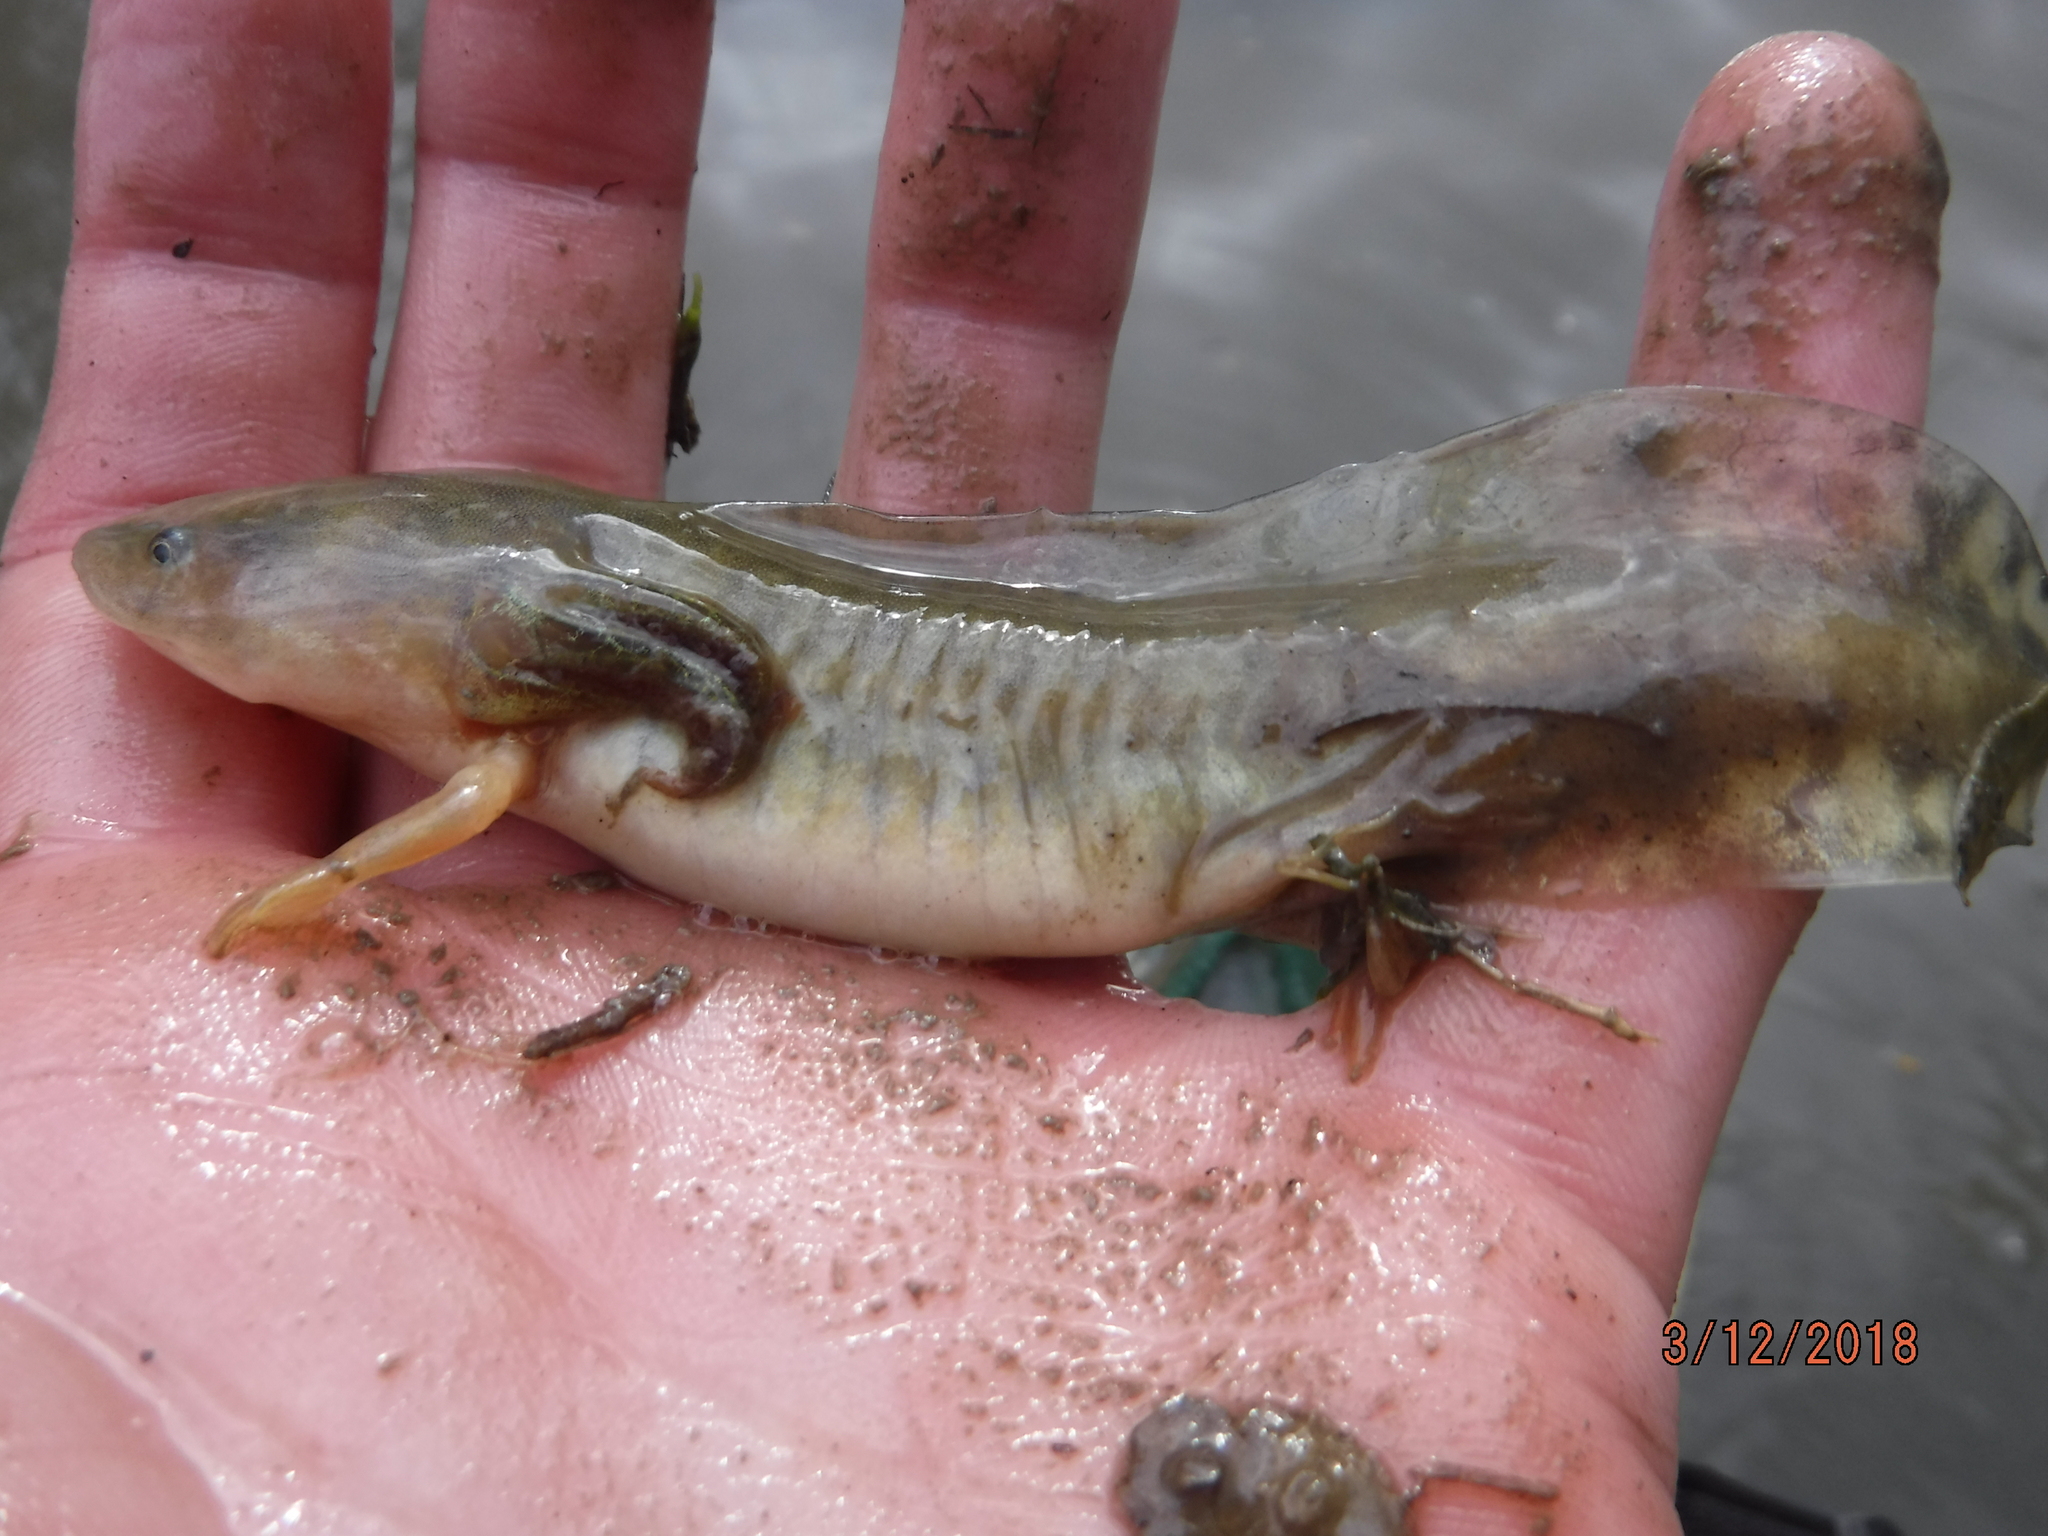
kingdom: Animalia
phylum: Chordata
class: Amphibia
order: Caudata
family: Ambystomatidae
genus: Ambystoma
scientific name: Ambystoma mavortium
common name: Western tiger salamander
